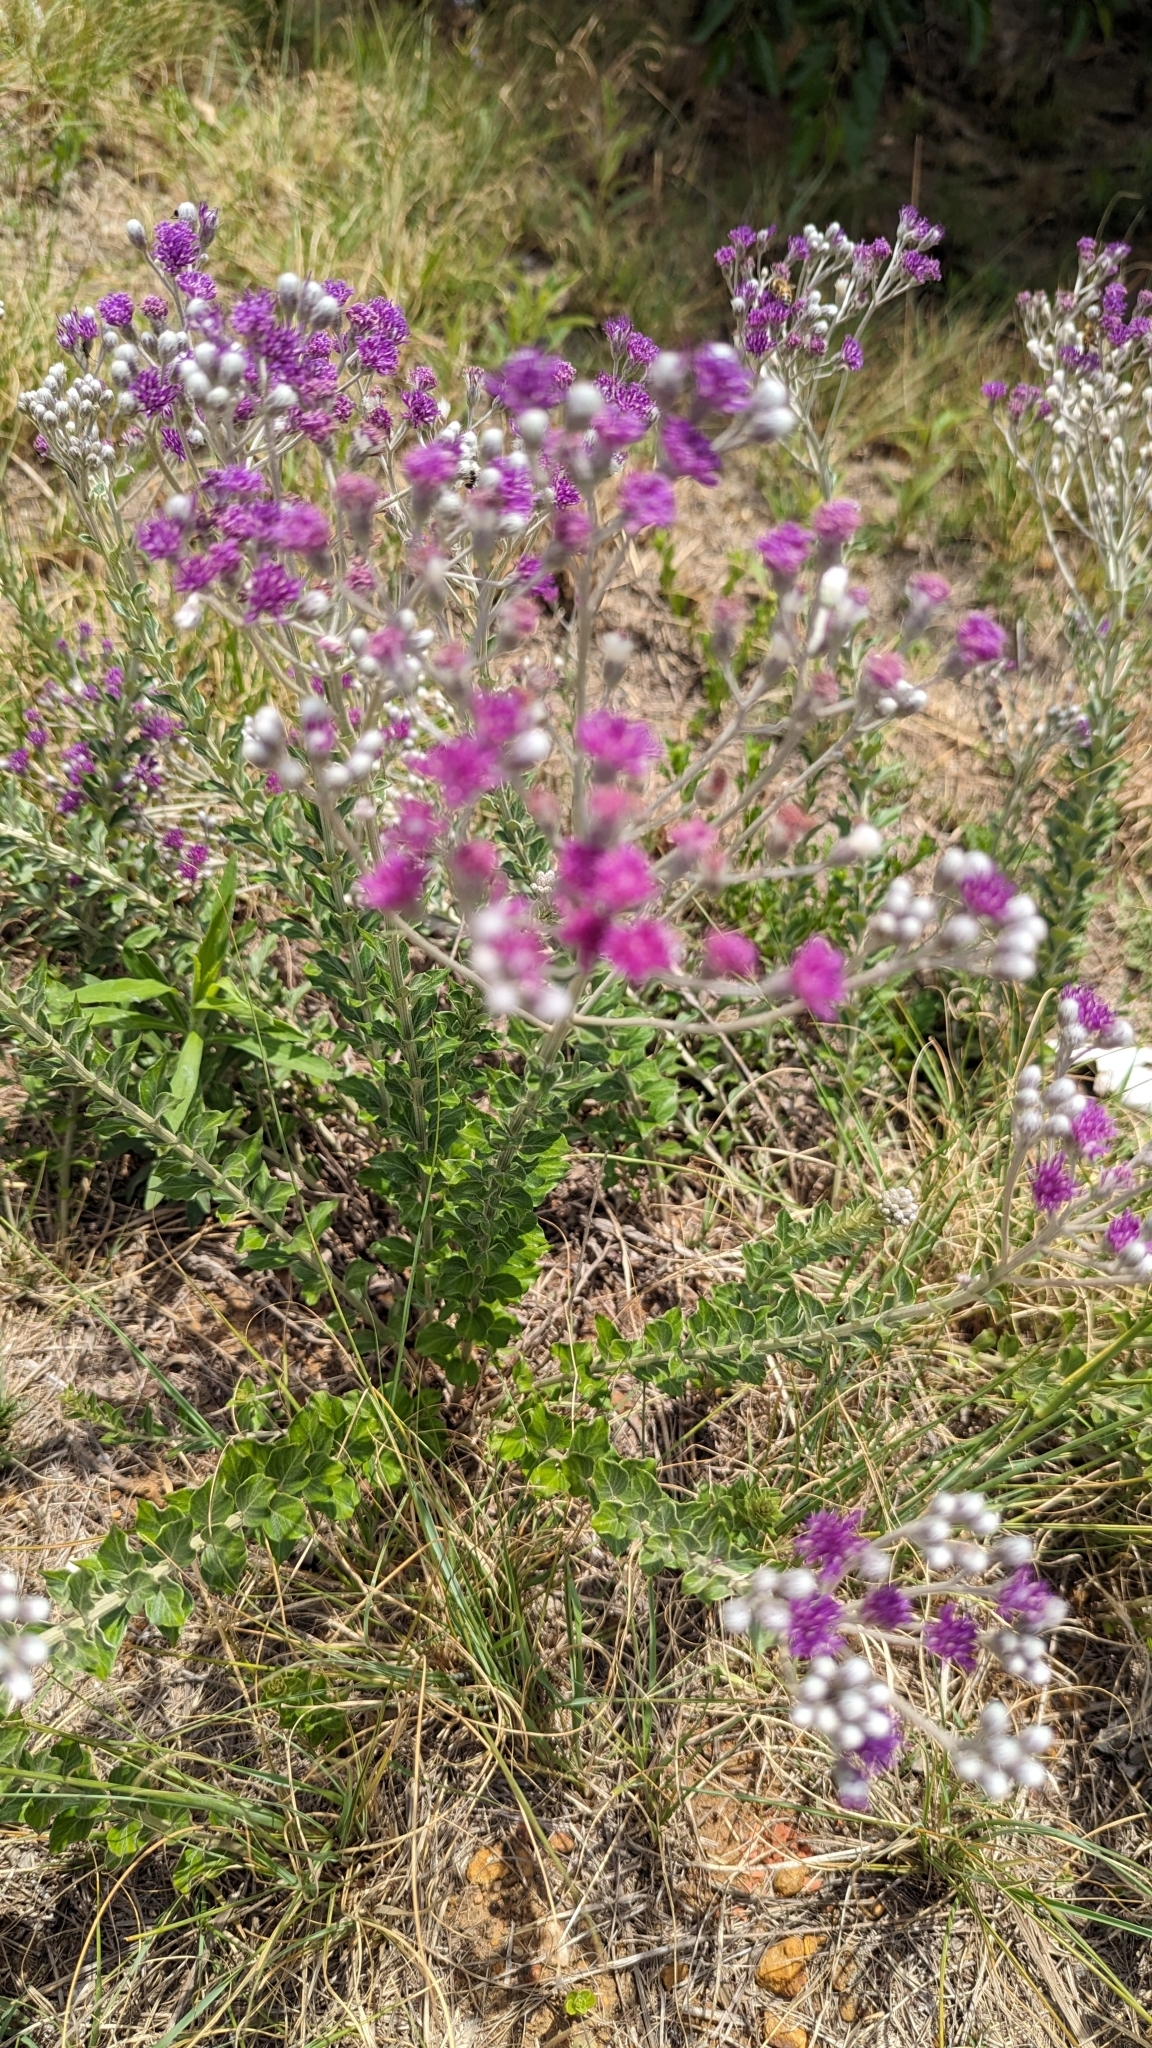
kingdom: Plantae
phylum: Tracheophyta
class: Magnoliopsida
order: Asterales
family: Asteraceae
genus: Hilliardiella
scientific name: Hilliardiella oligocephala
